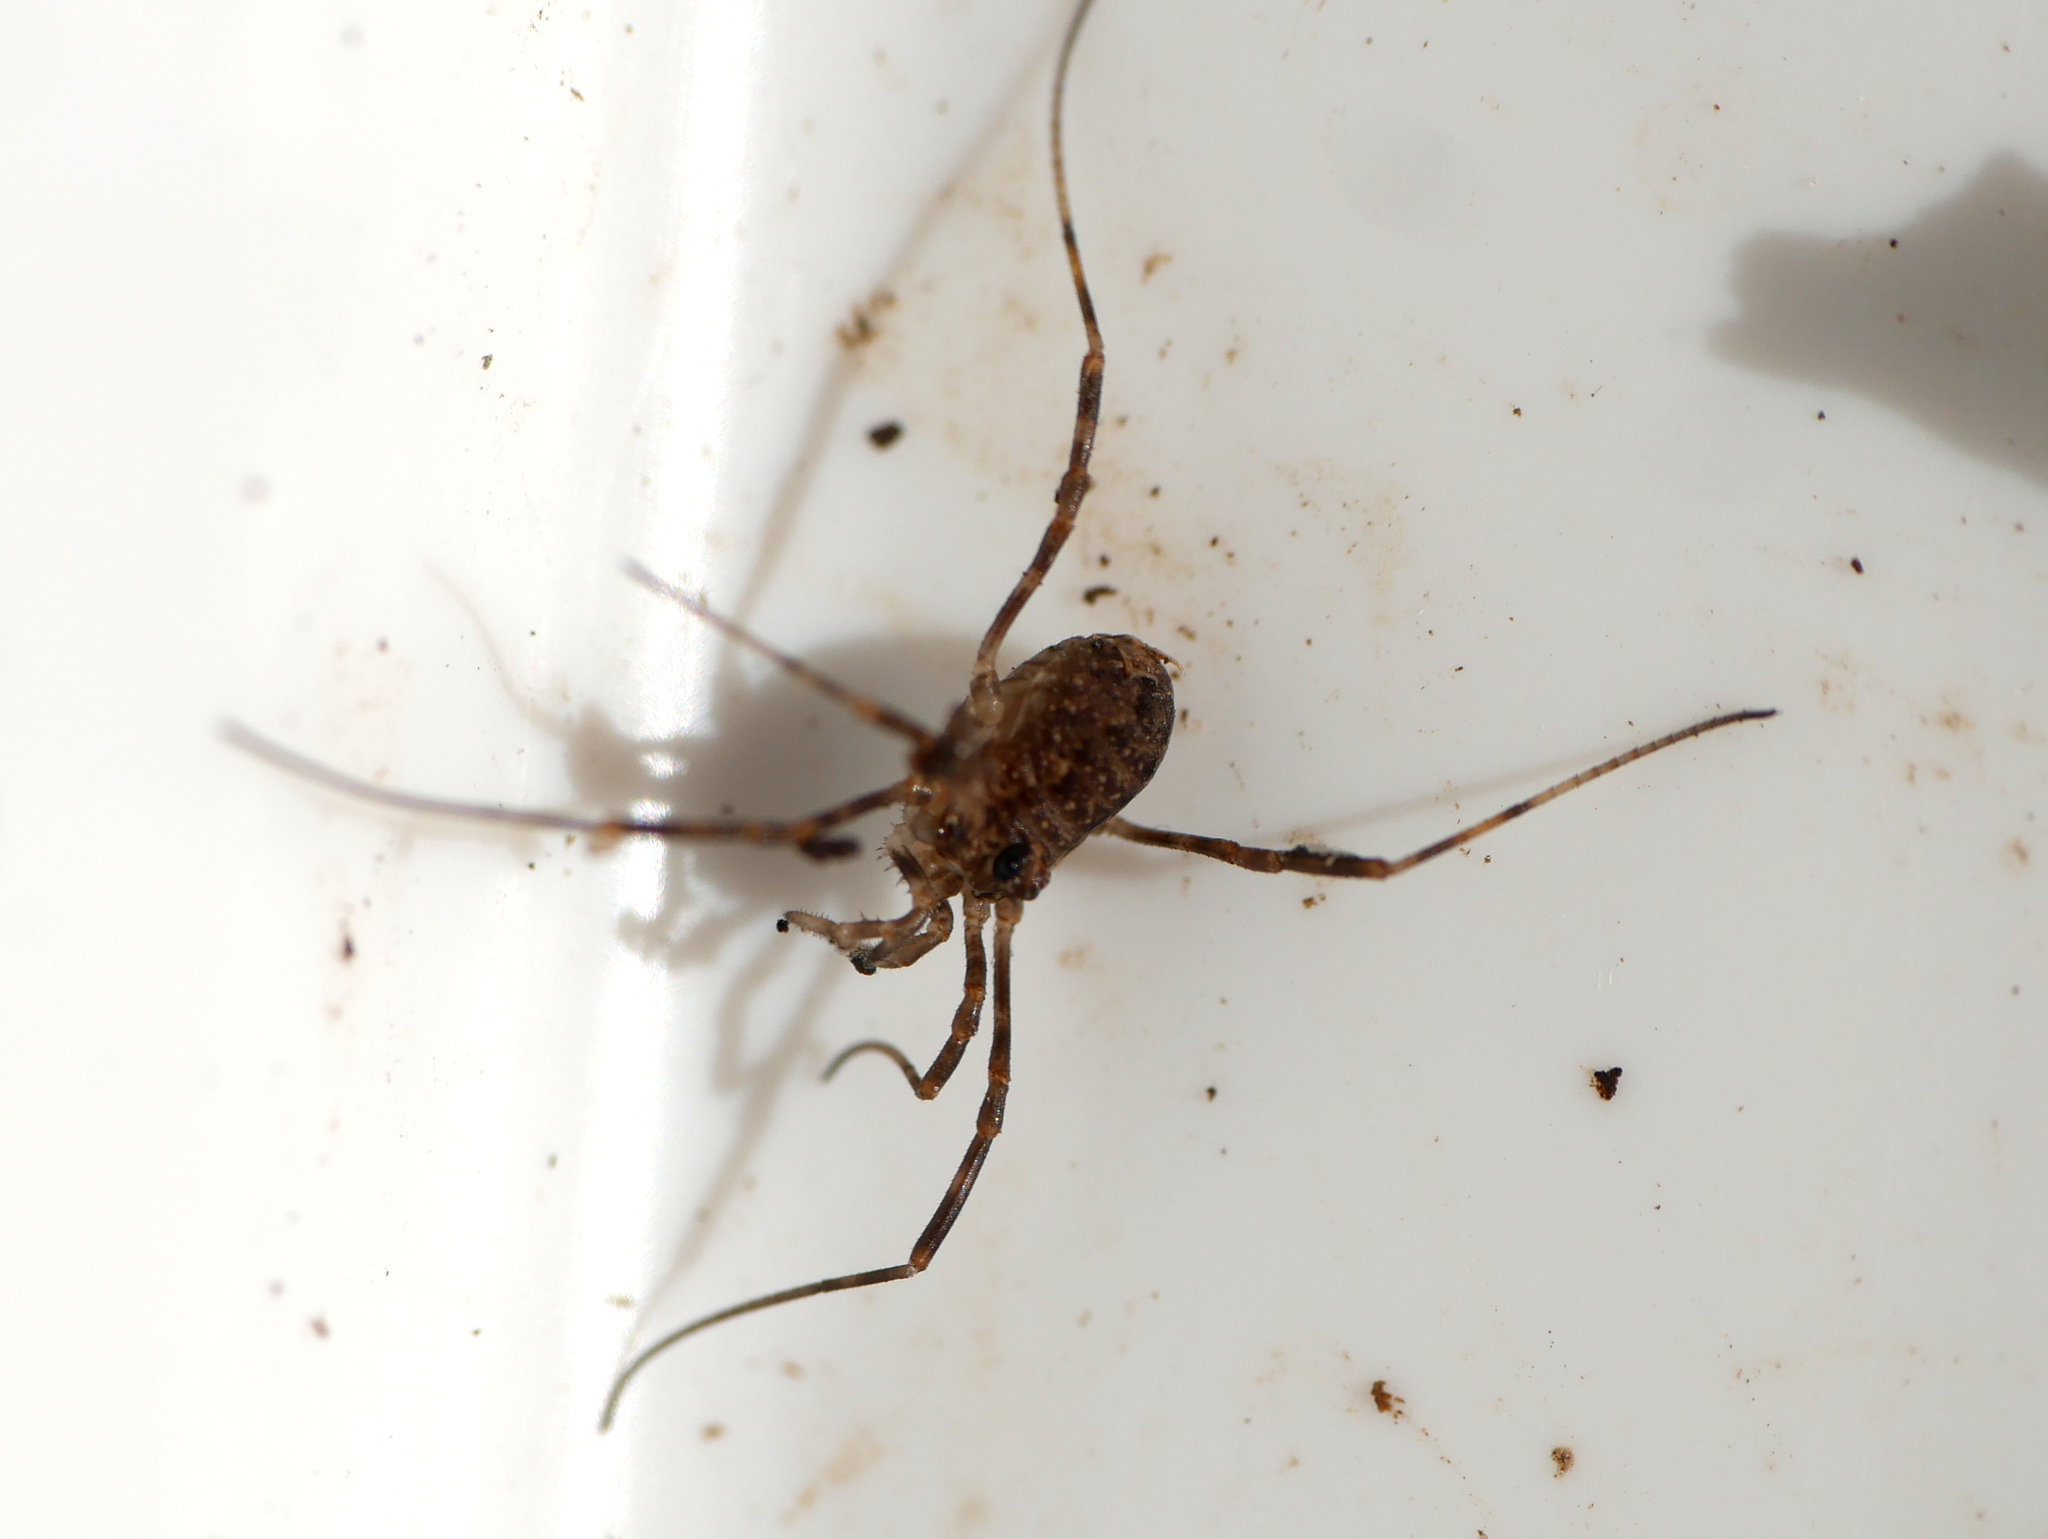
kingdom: Animalia
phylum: Arthropoda
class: Arachnida
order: Opiliones
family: Phalangiidae
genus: Rilaena
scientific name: Rilaena triangularis
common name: Spring harvestman
